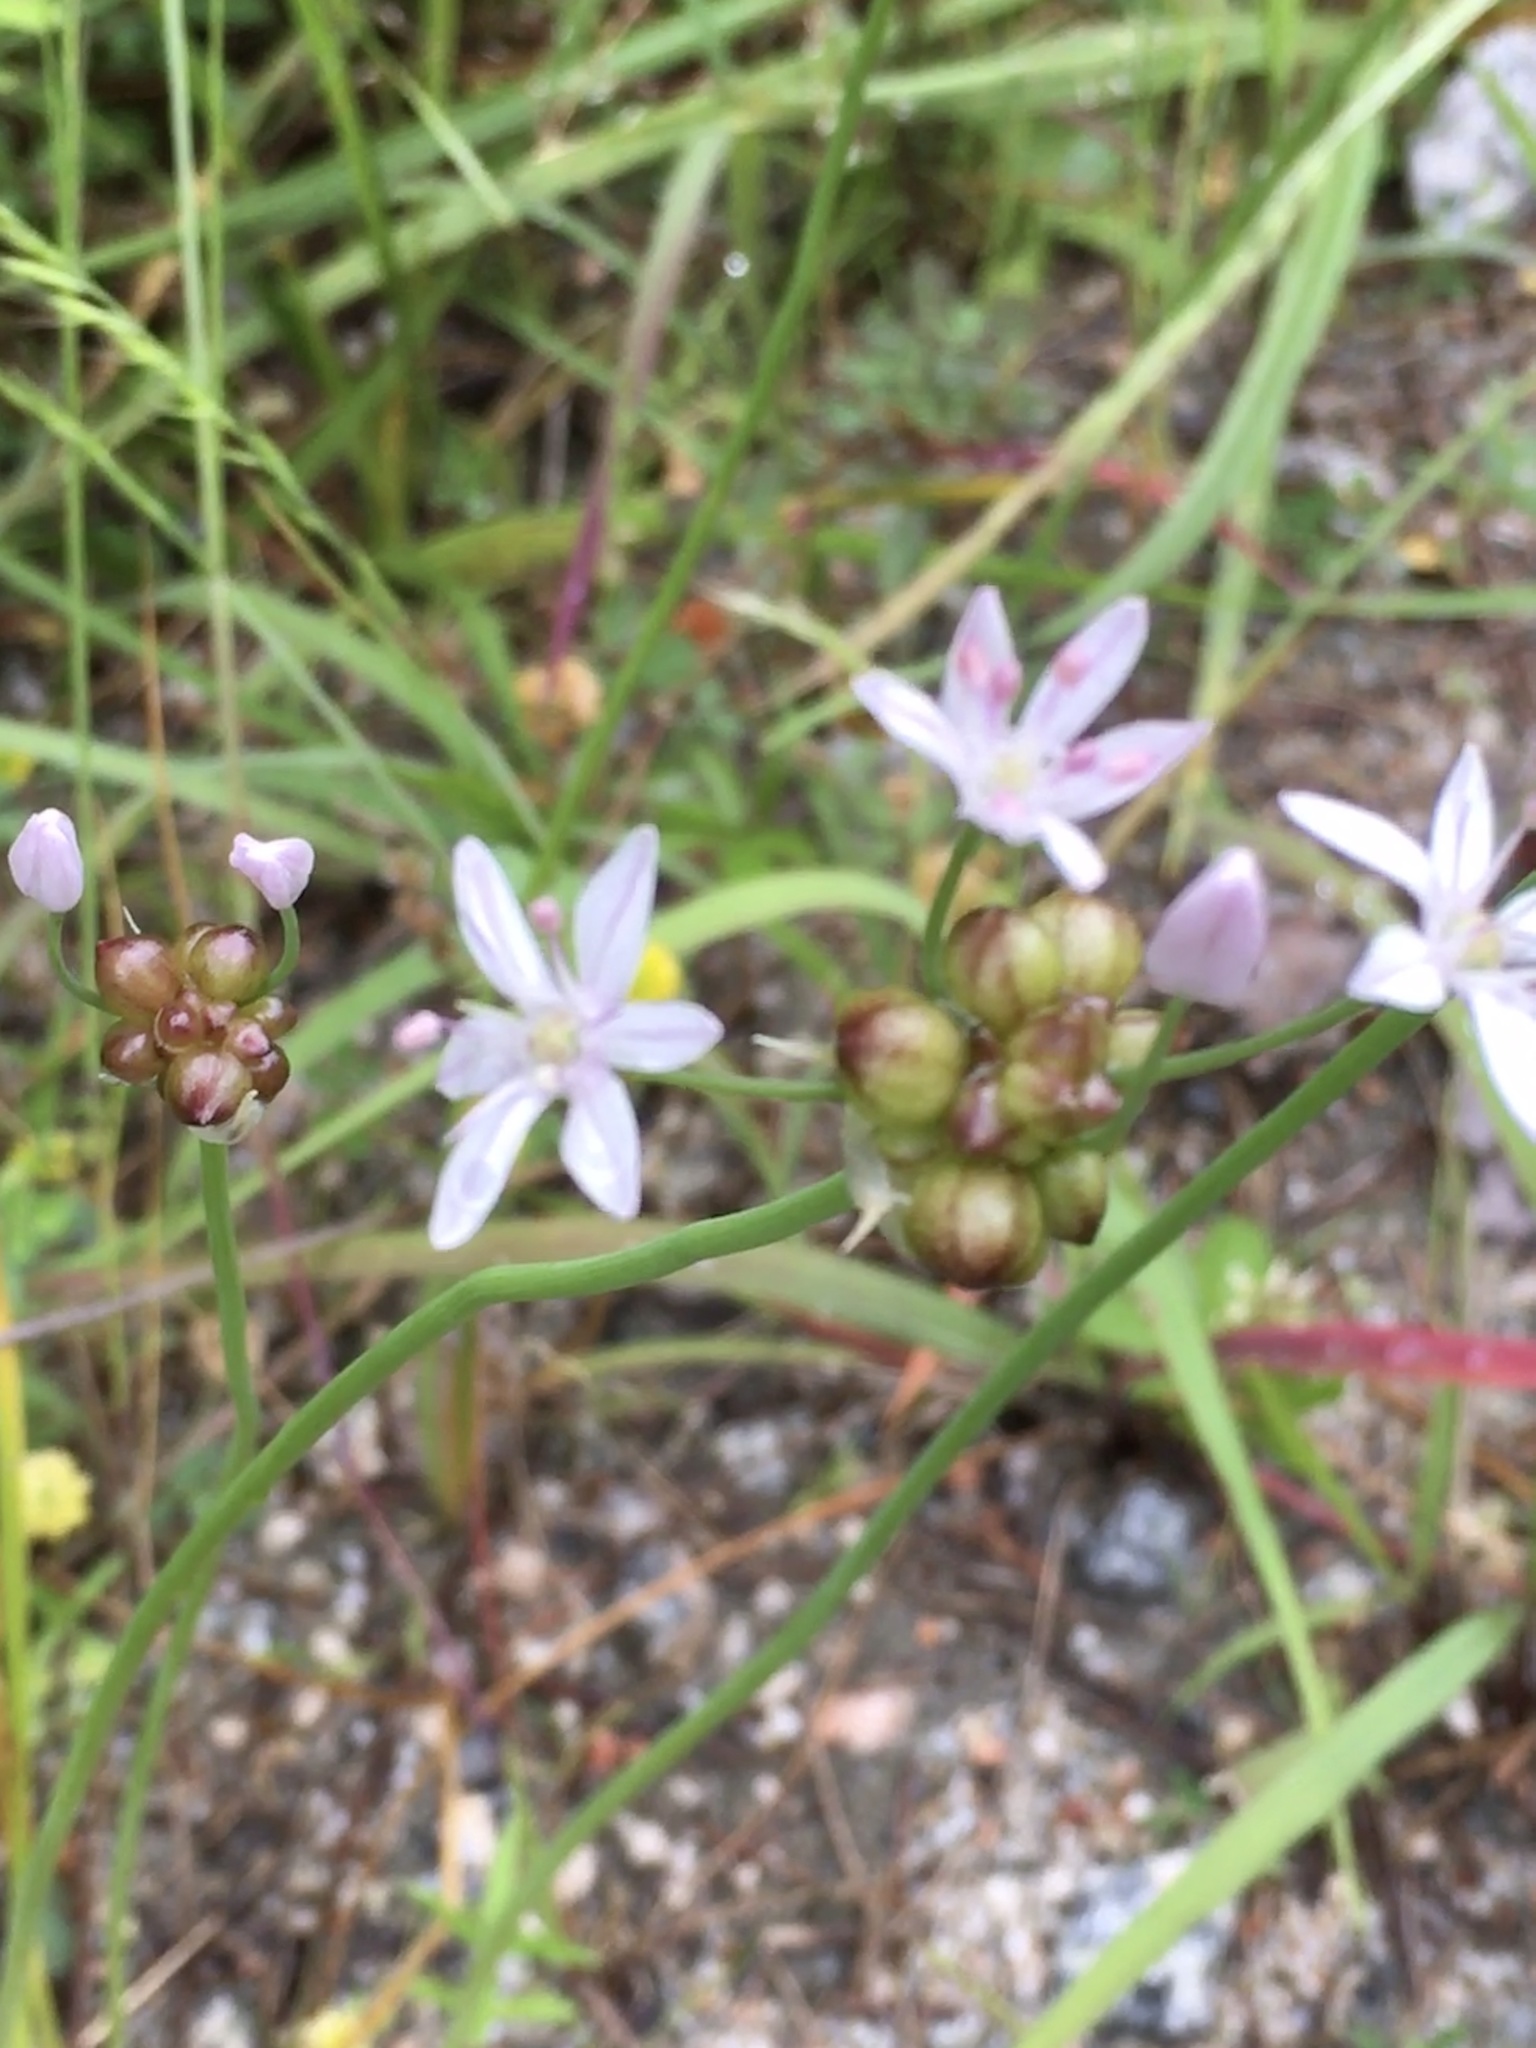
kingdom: Plantae
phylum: Tracheophyta
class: Liliopsida
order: Asparagales
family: Amaryllidaceae
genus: Allium
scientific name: Allium canadense
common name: Meadow garlic
